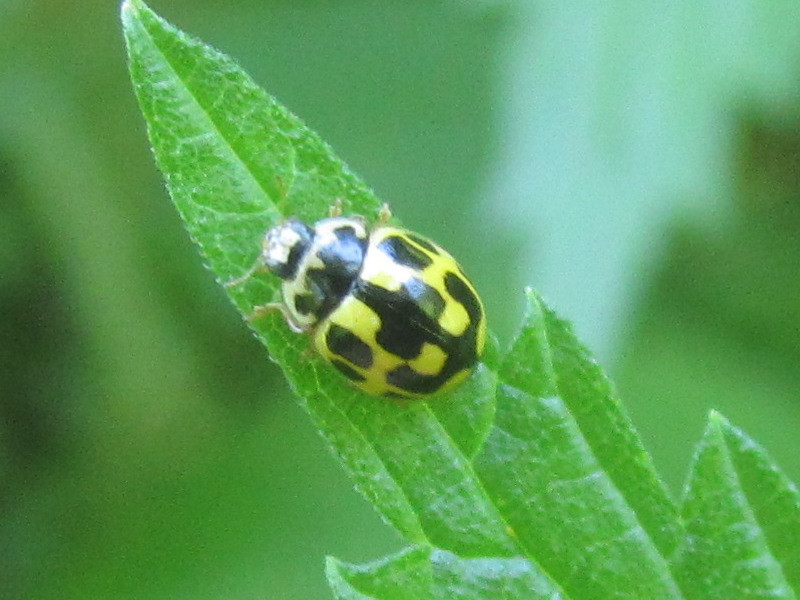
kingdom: Animalia
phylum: Arthropoda
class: Insecta
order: Coleoptera
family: Coccinellidae
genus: Propylaea
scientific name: Propylaea quatuordecimpunctata
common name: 14-spotted ladybird beetle
